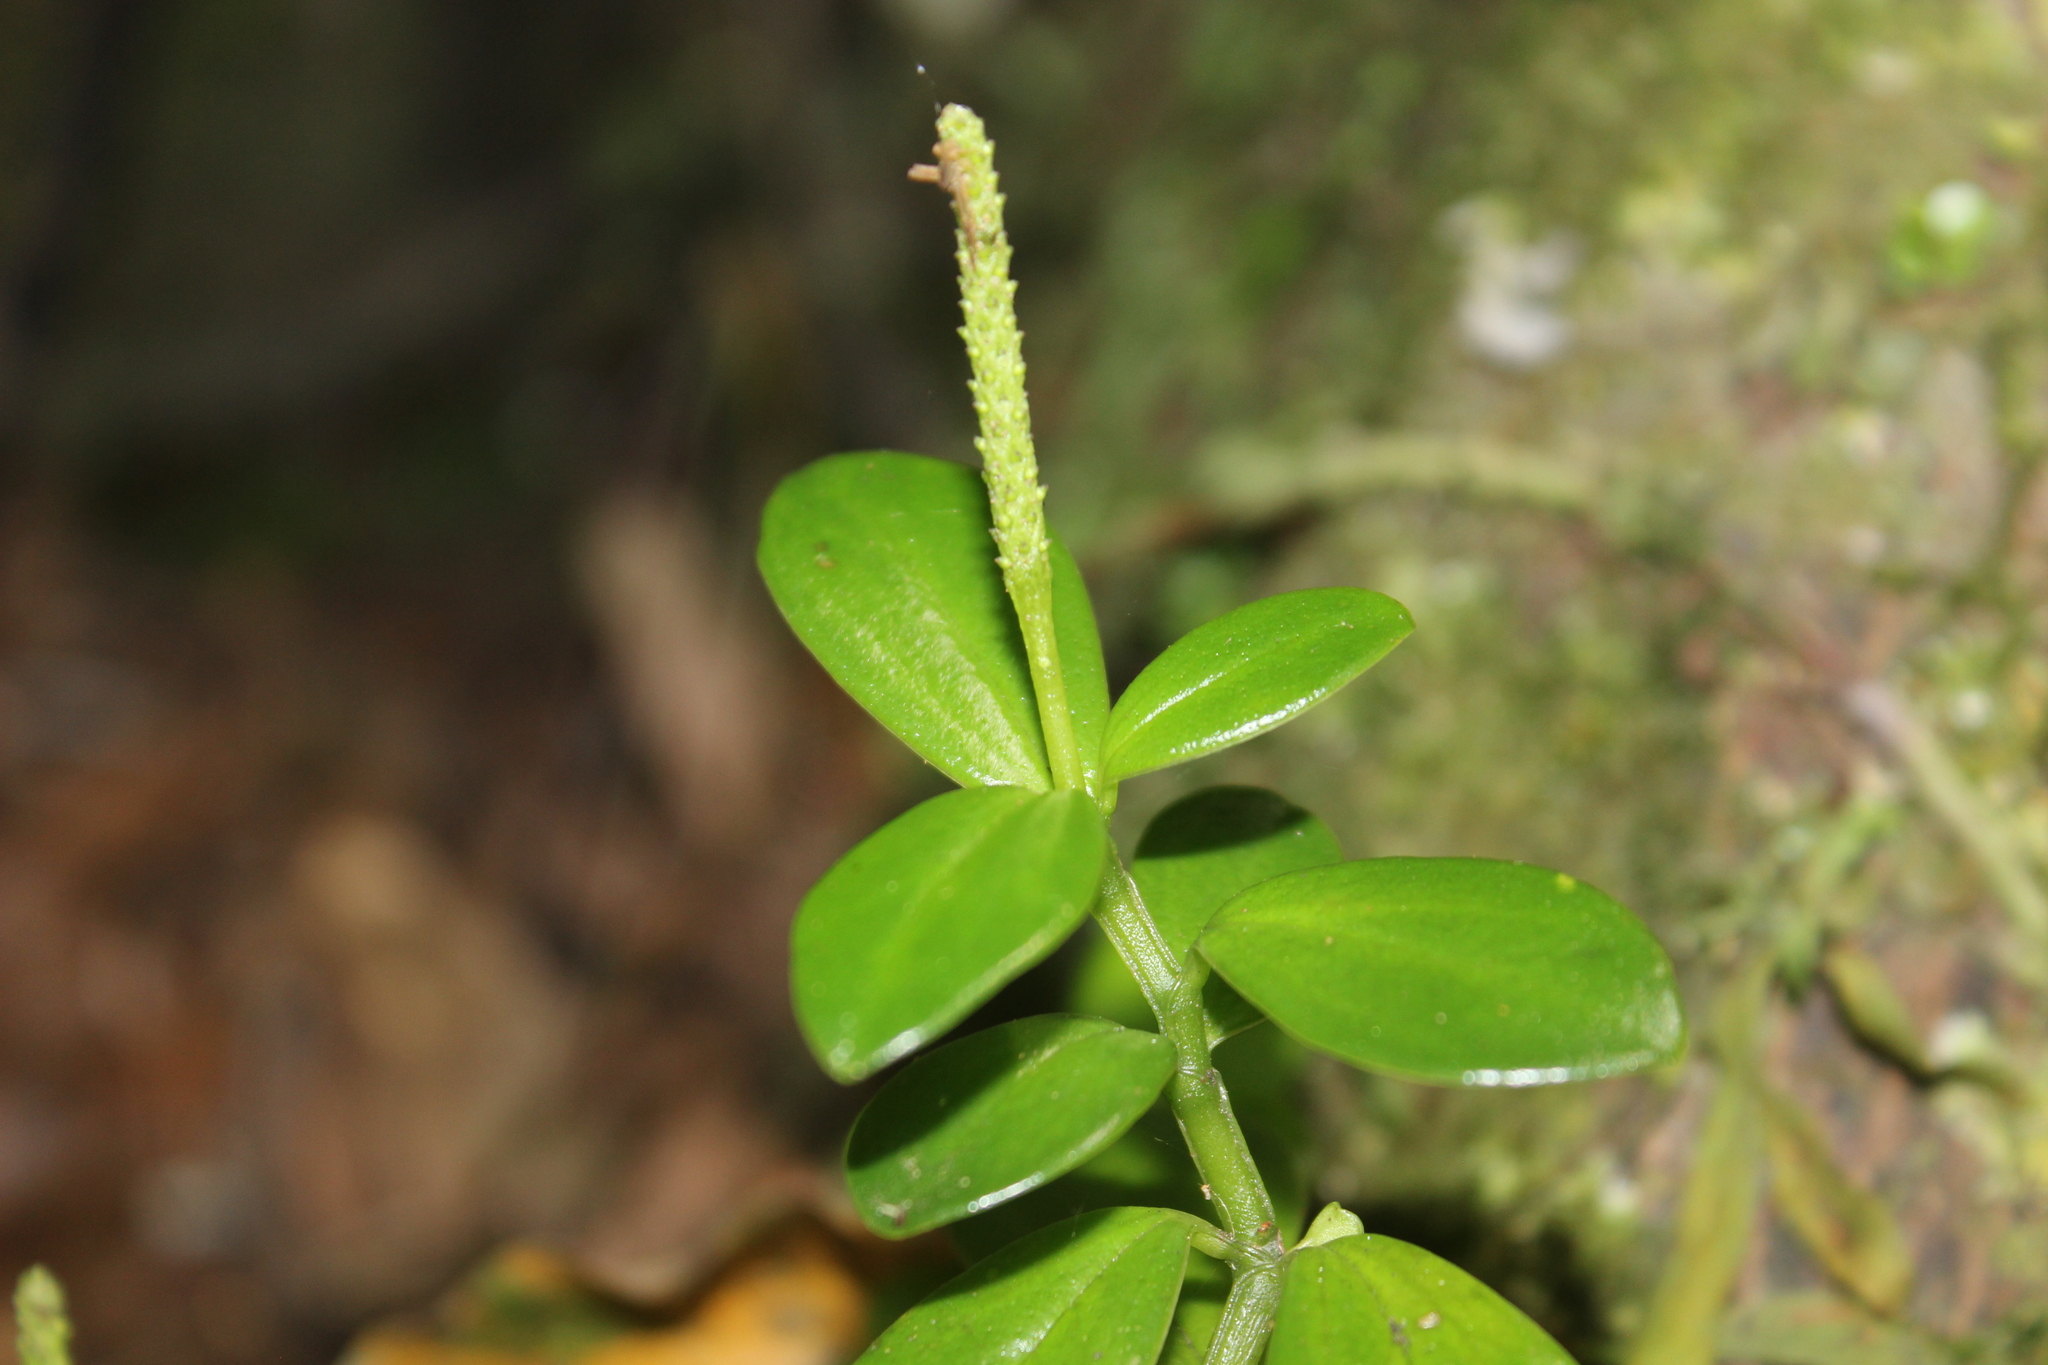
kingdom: Plantae
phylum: Tracheophyta
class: Magnoliopsida
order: Piperales
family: Piperaceae
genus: Peperomia
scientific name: Peperomia urvilleana
